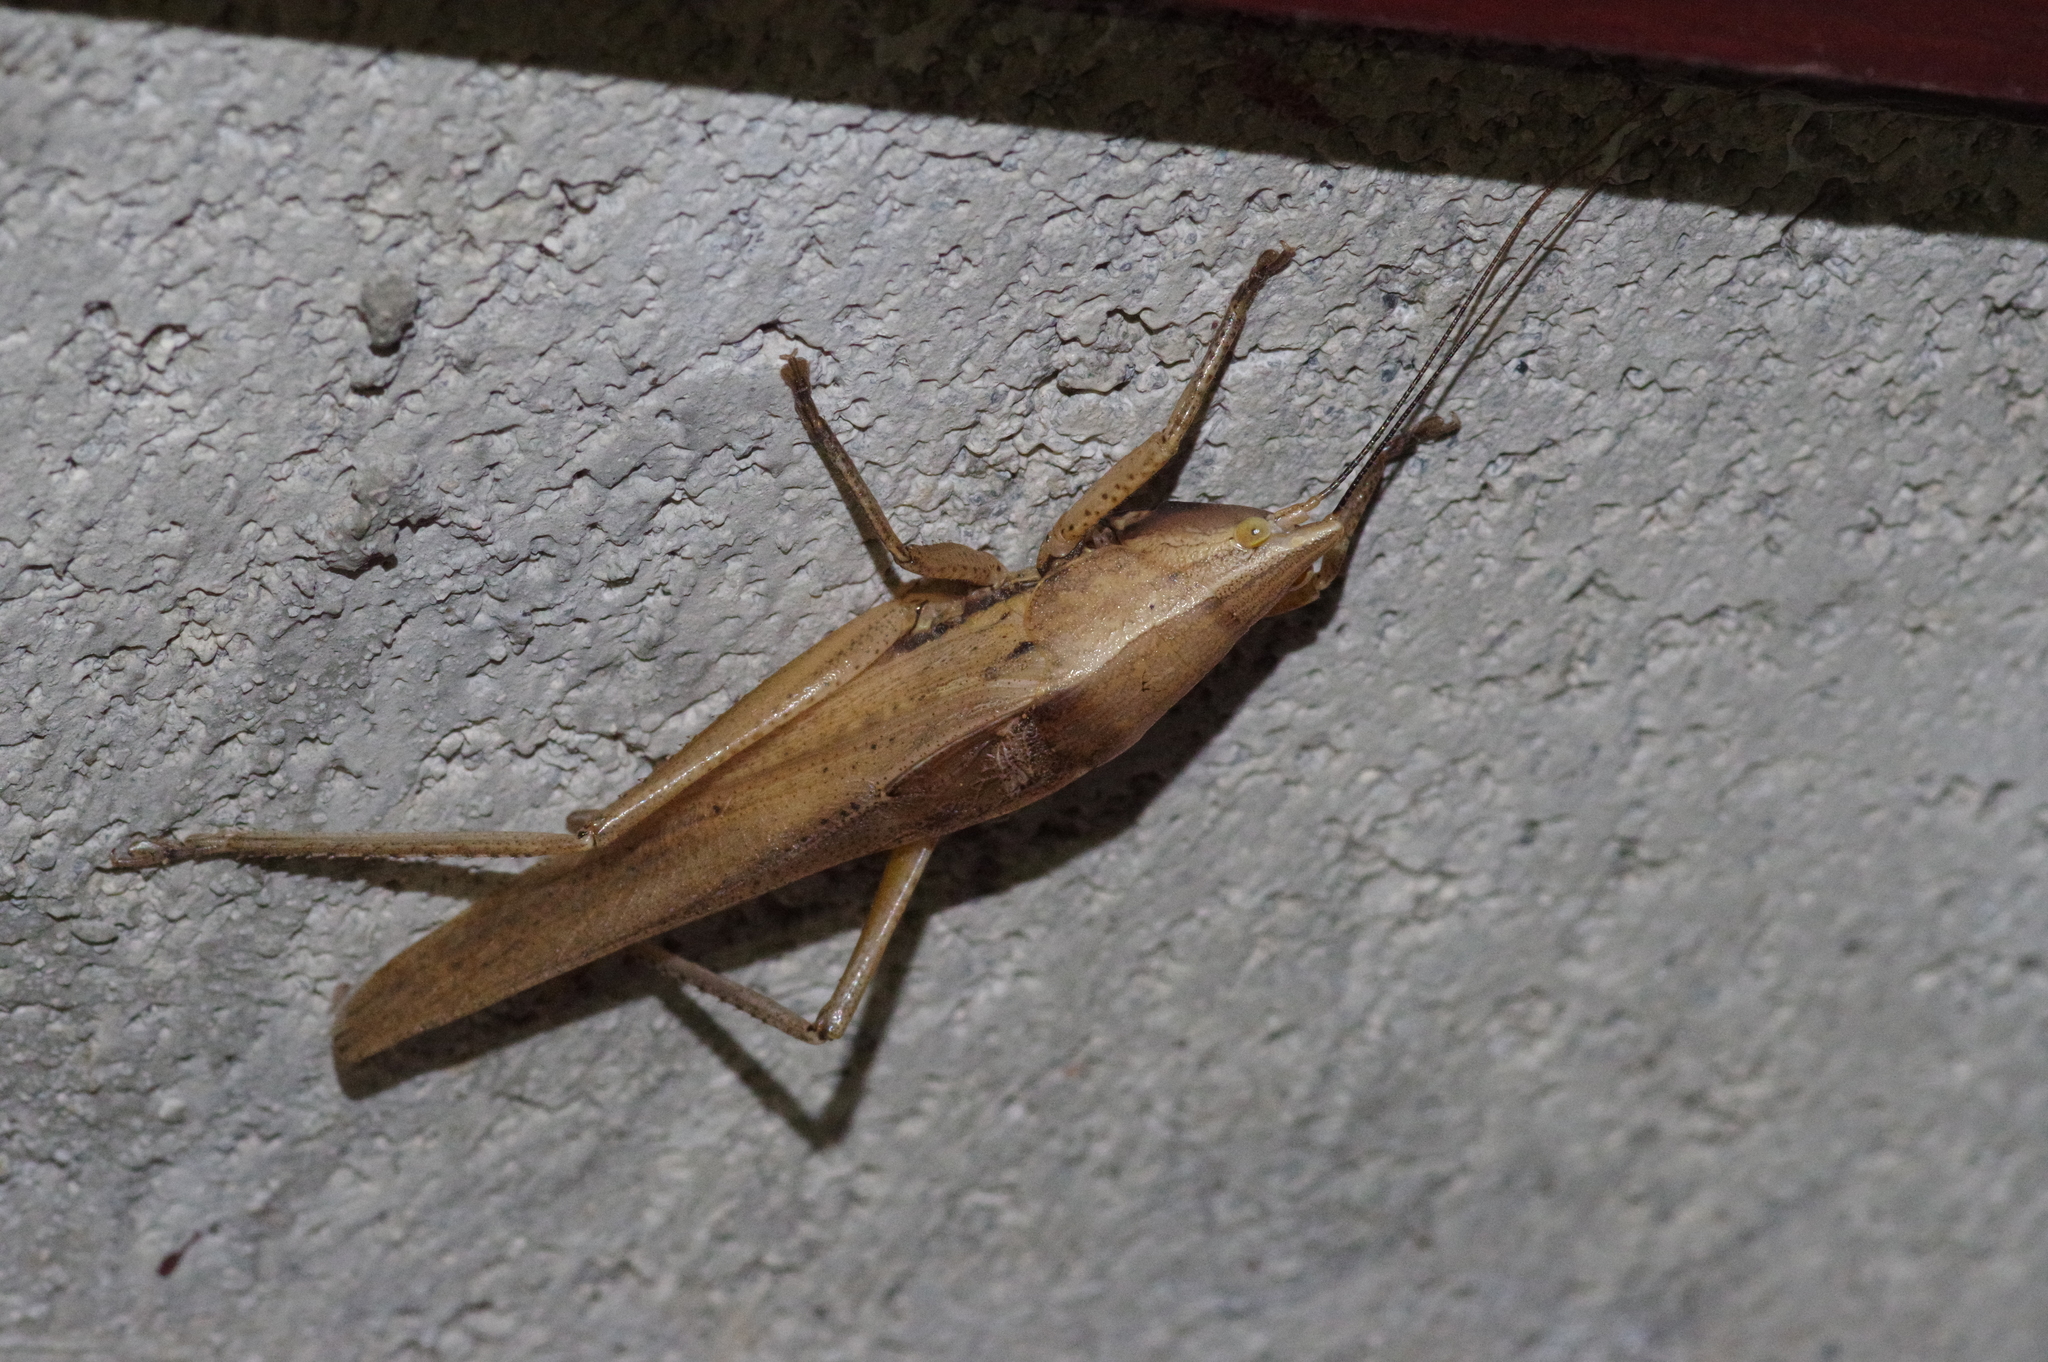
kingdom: Animalia
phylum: Arthropoda
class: Insecta
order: Orthoptera
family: Tettigoniidae
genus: Xestophrys
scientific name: Xestophrys horvathi
